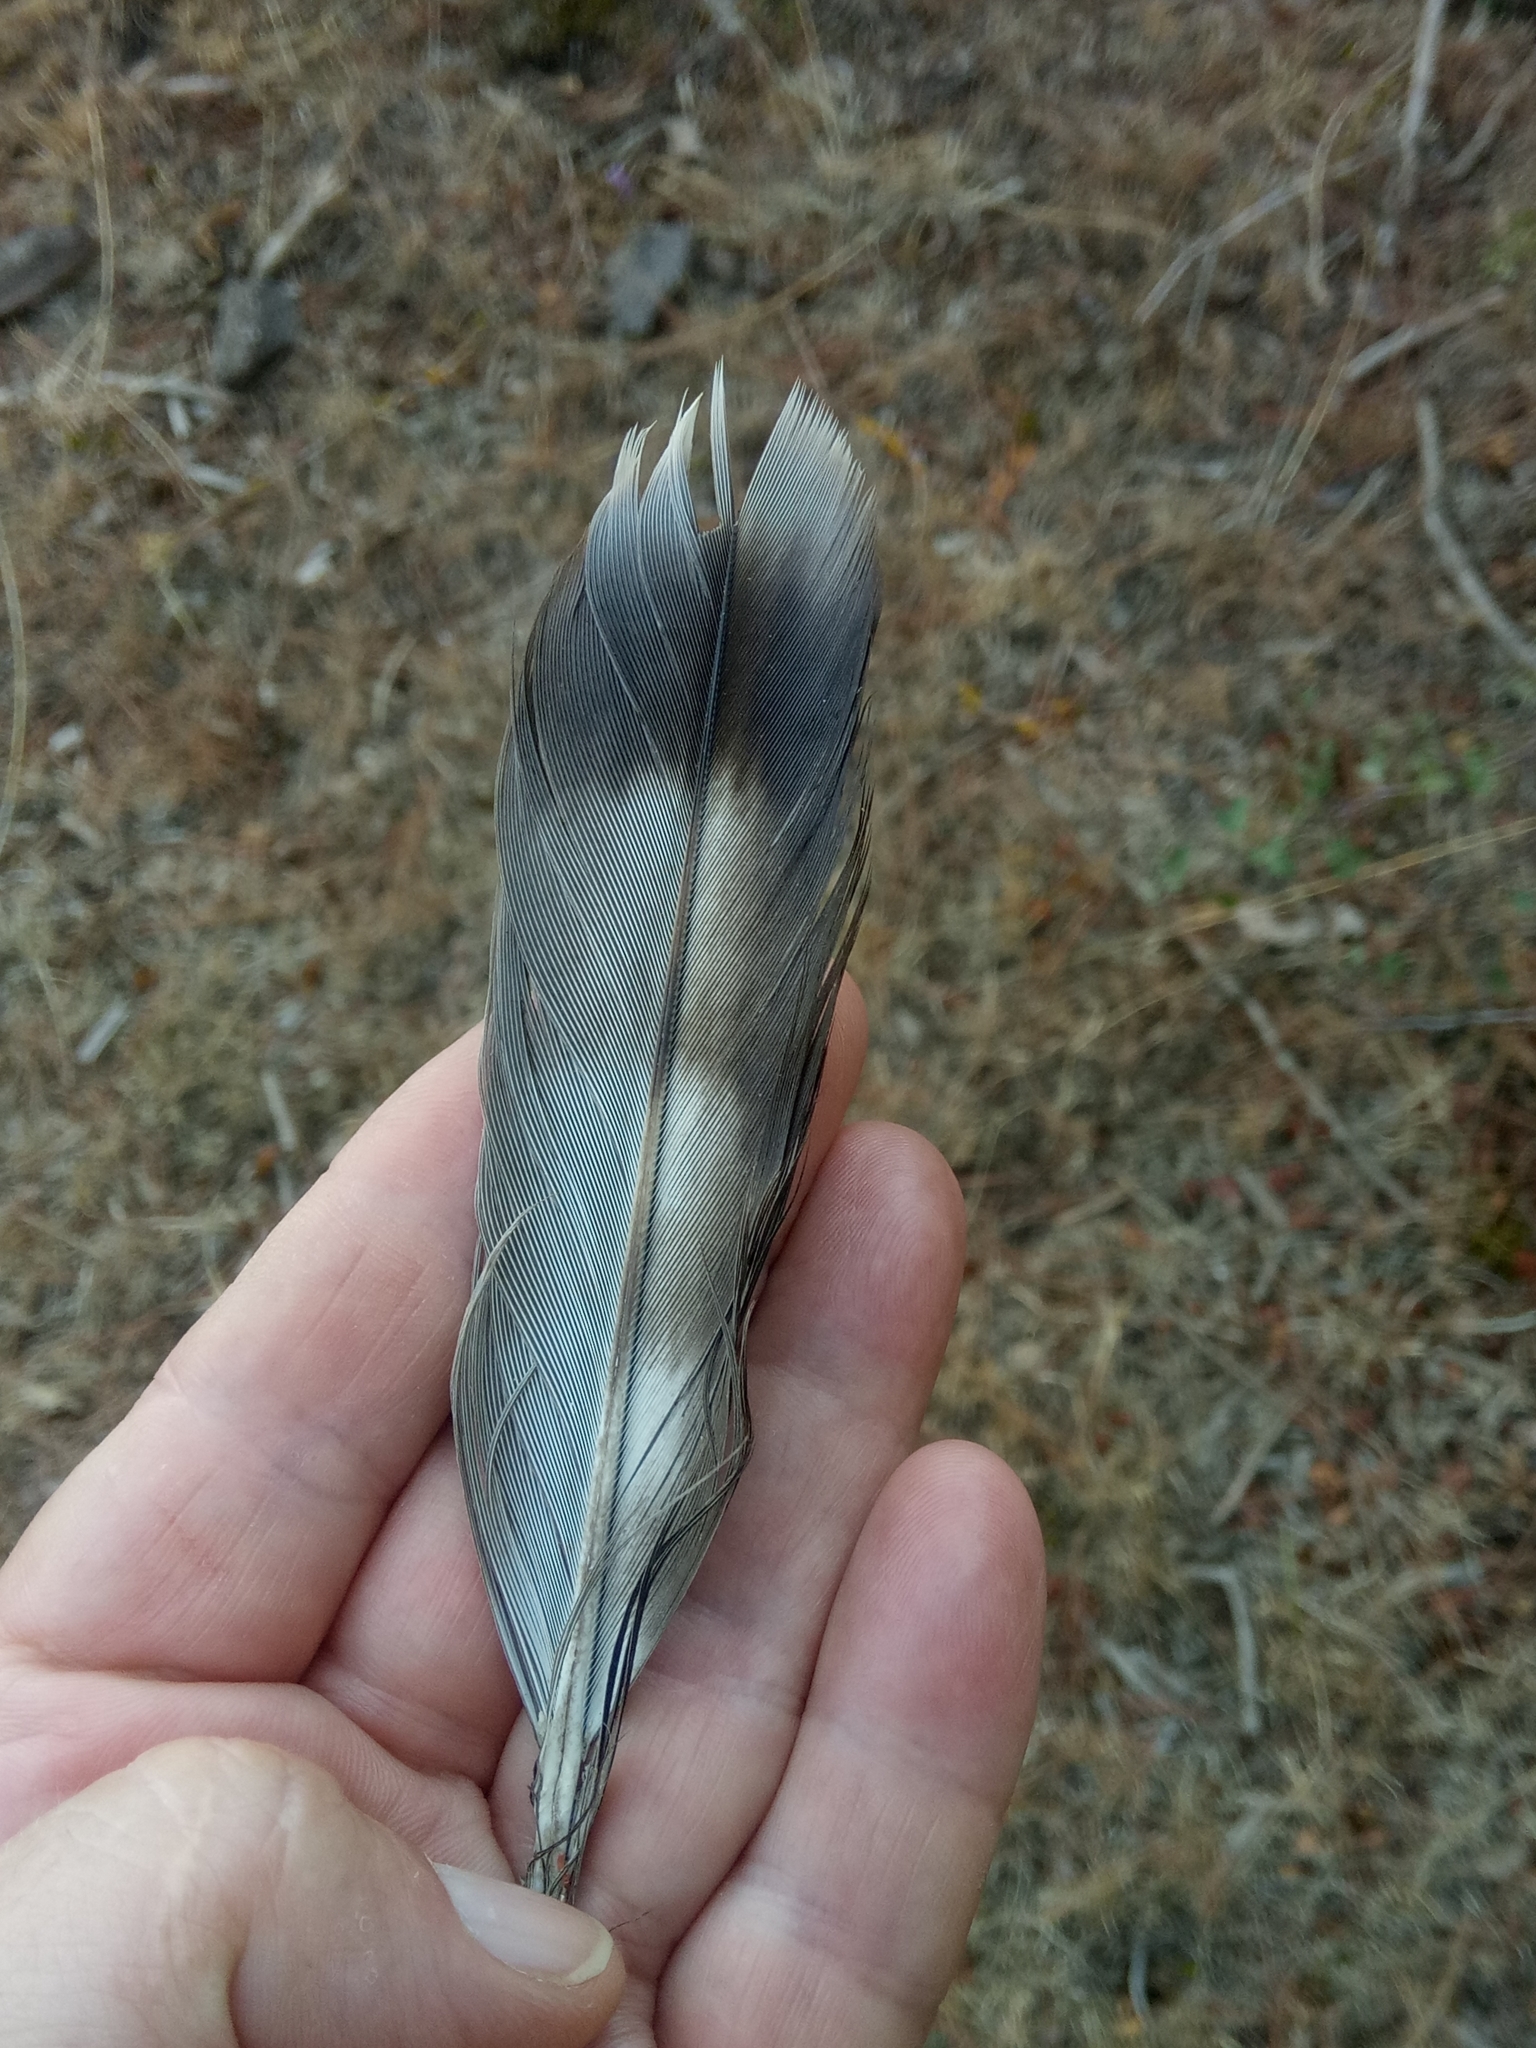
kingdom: Animalia
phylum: Chordata
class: Aves
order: Accipitriformes
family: Accipitridae
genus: Hieraaetus
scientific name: Hieraaetus pennatus
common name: Booted eagle
